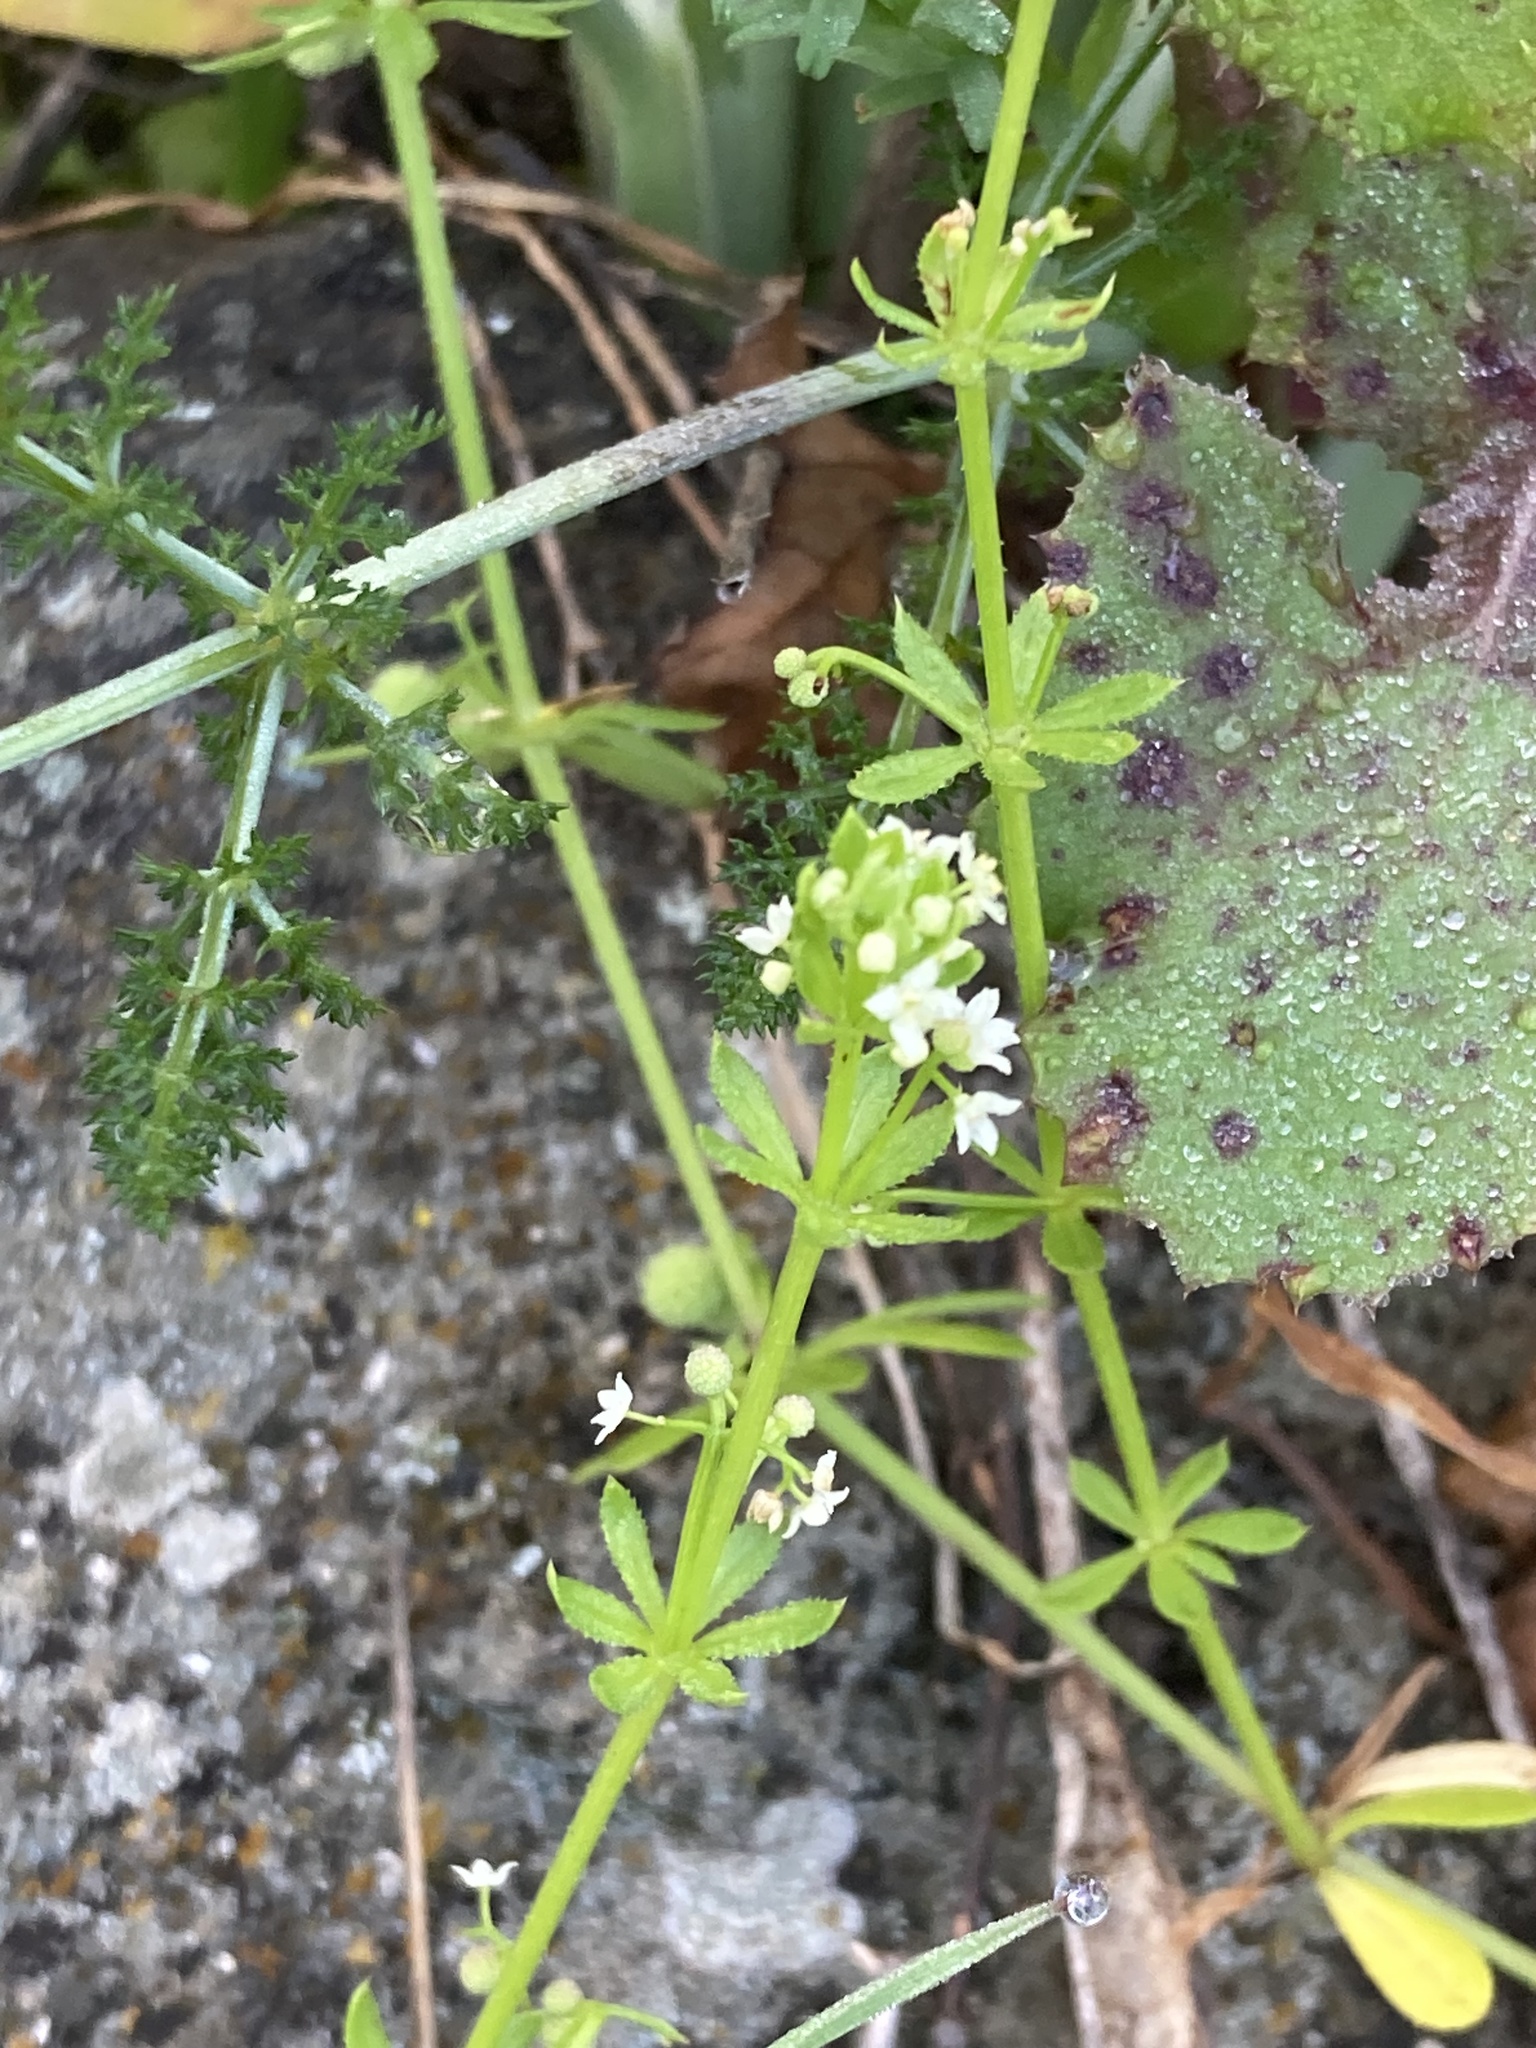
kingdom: Plantae
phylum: Tracheophyta
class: Magnoliopsida
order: Gentianales
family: Rubiaceae
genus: Galium
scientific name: Galium verrucosum
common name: Warty bedstraw
